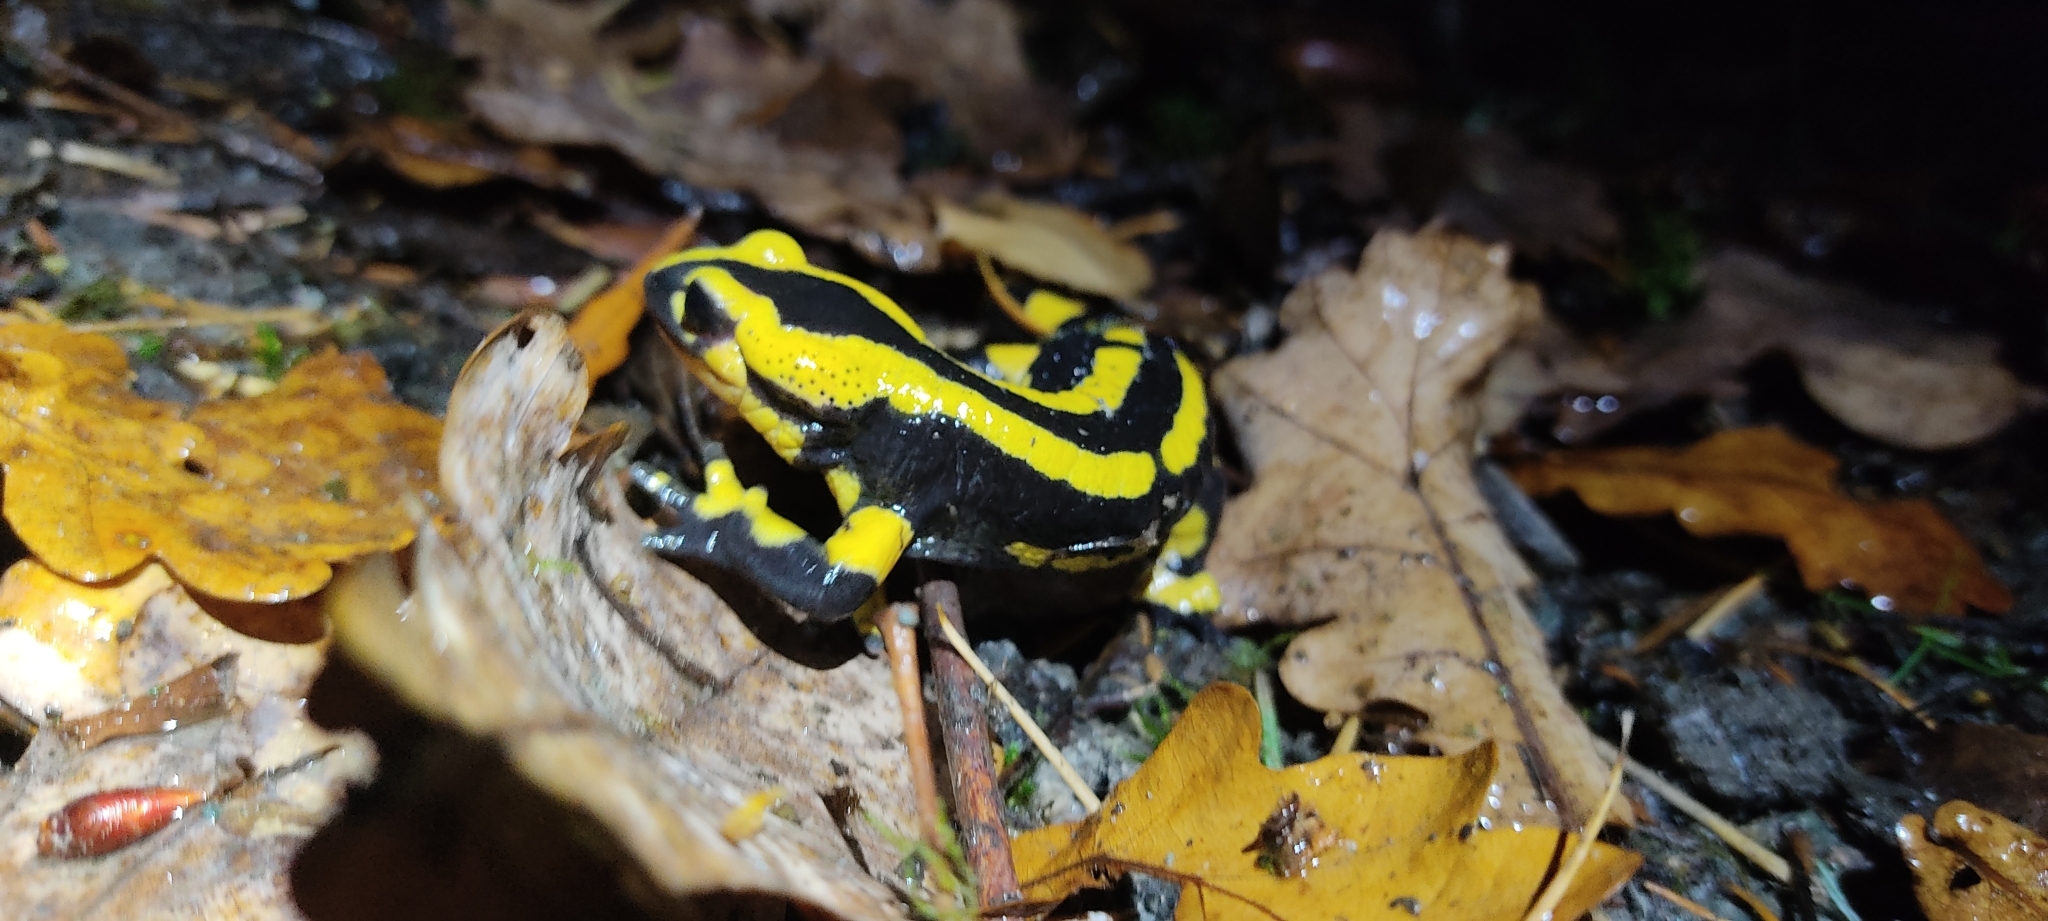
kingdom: Animalia
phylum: Chordata
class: Amphibia
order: Caudata
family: Salamandridae
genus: Salamandra
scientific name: Salamandra salamandra
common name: Fire salamander
